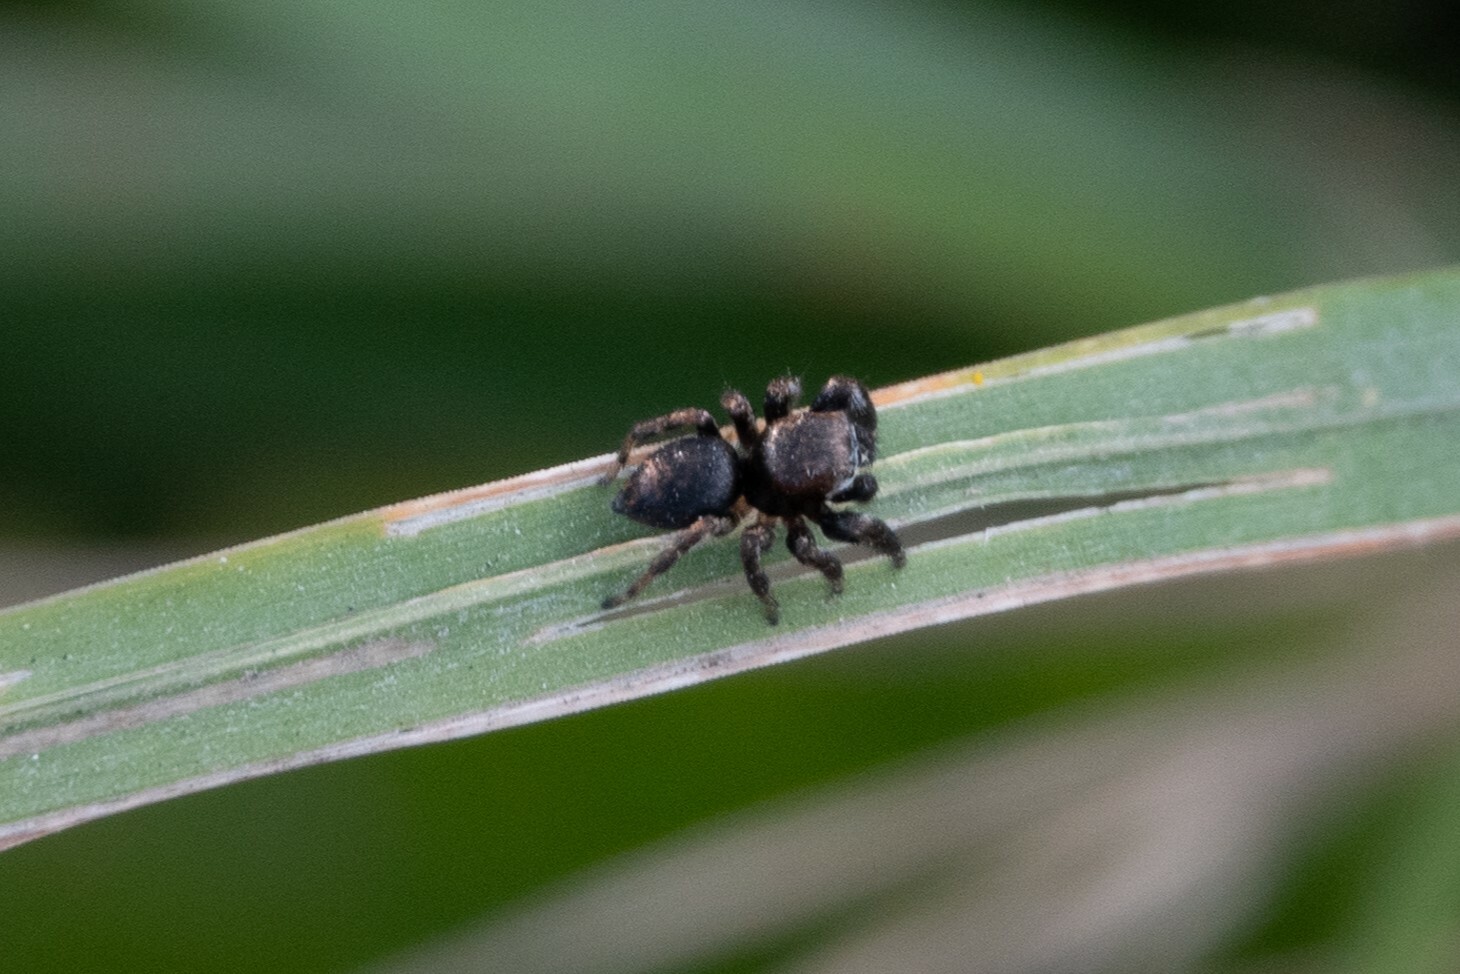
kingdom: Animalia
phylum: Arthropoda
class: Arachnida
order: Araneae
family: Salticidae
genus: Evarcha
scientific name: Evarcha arcuata
